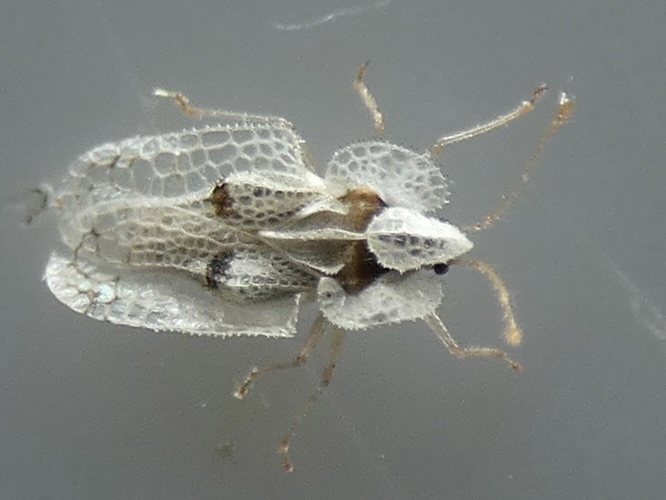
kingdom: Animalia
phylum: Arthropoda
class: Insecta
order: Hemiptera
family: Tingidae
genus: Corythucha
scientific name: Corythucha ciliata
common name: Sycamore lace bug
